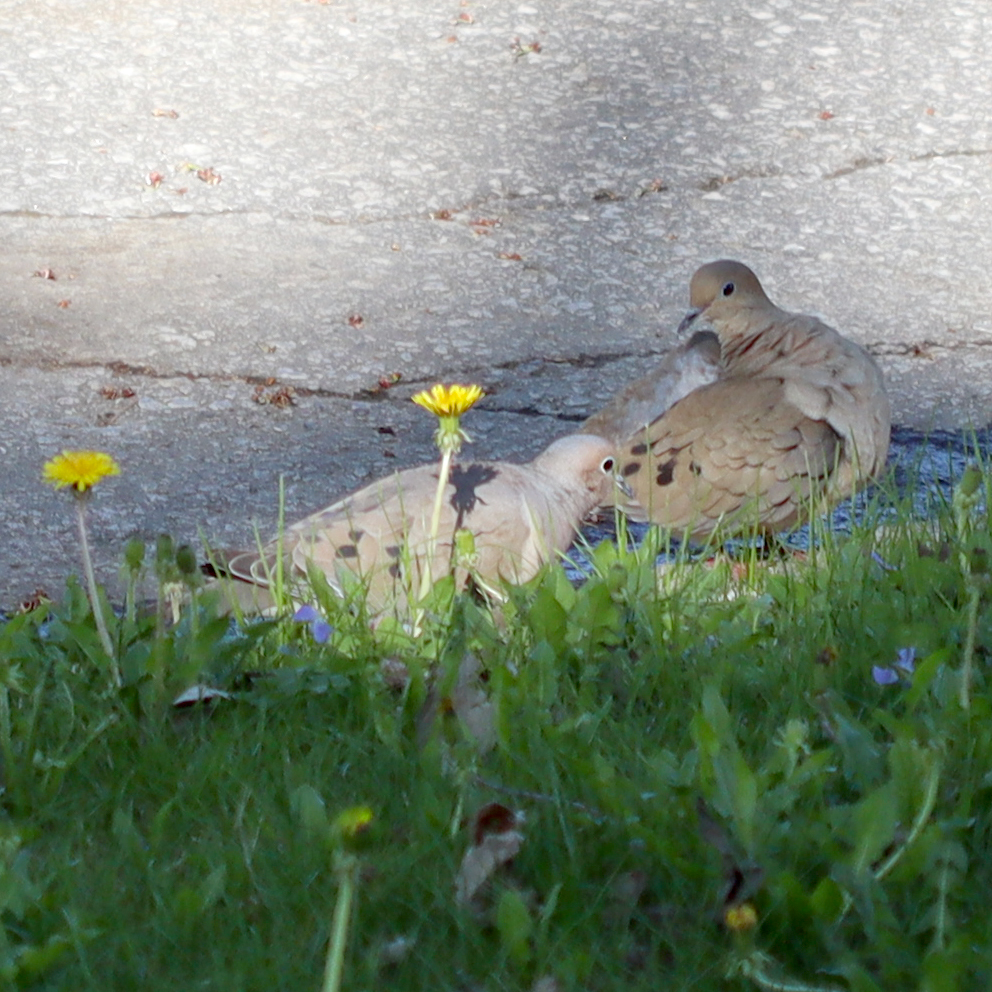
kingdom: Animalia
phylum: Chordata
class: Aves
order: Columbiformes
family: Columbidae
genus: Zenaida
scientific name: Zenaida macroura
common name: Mourning dove
